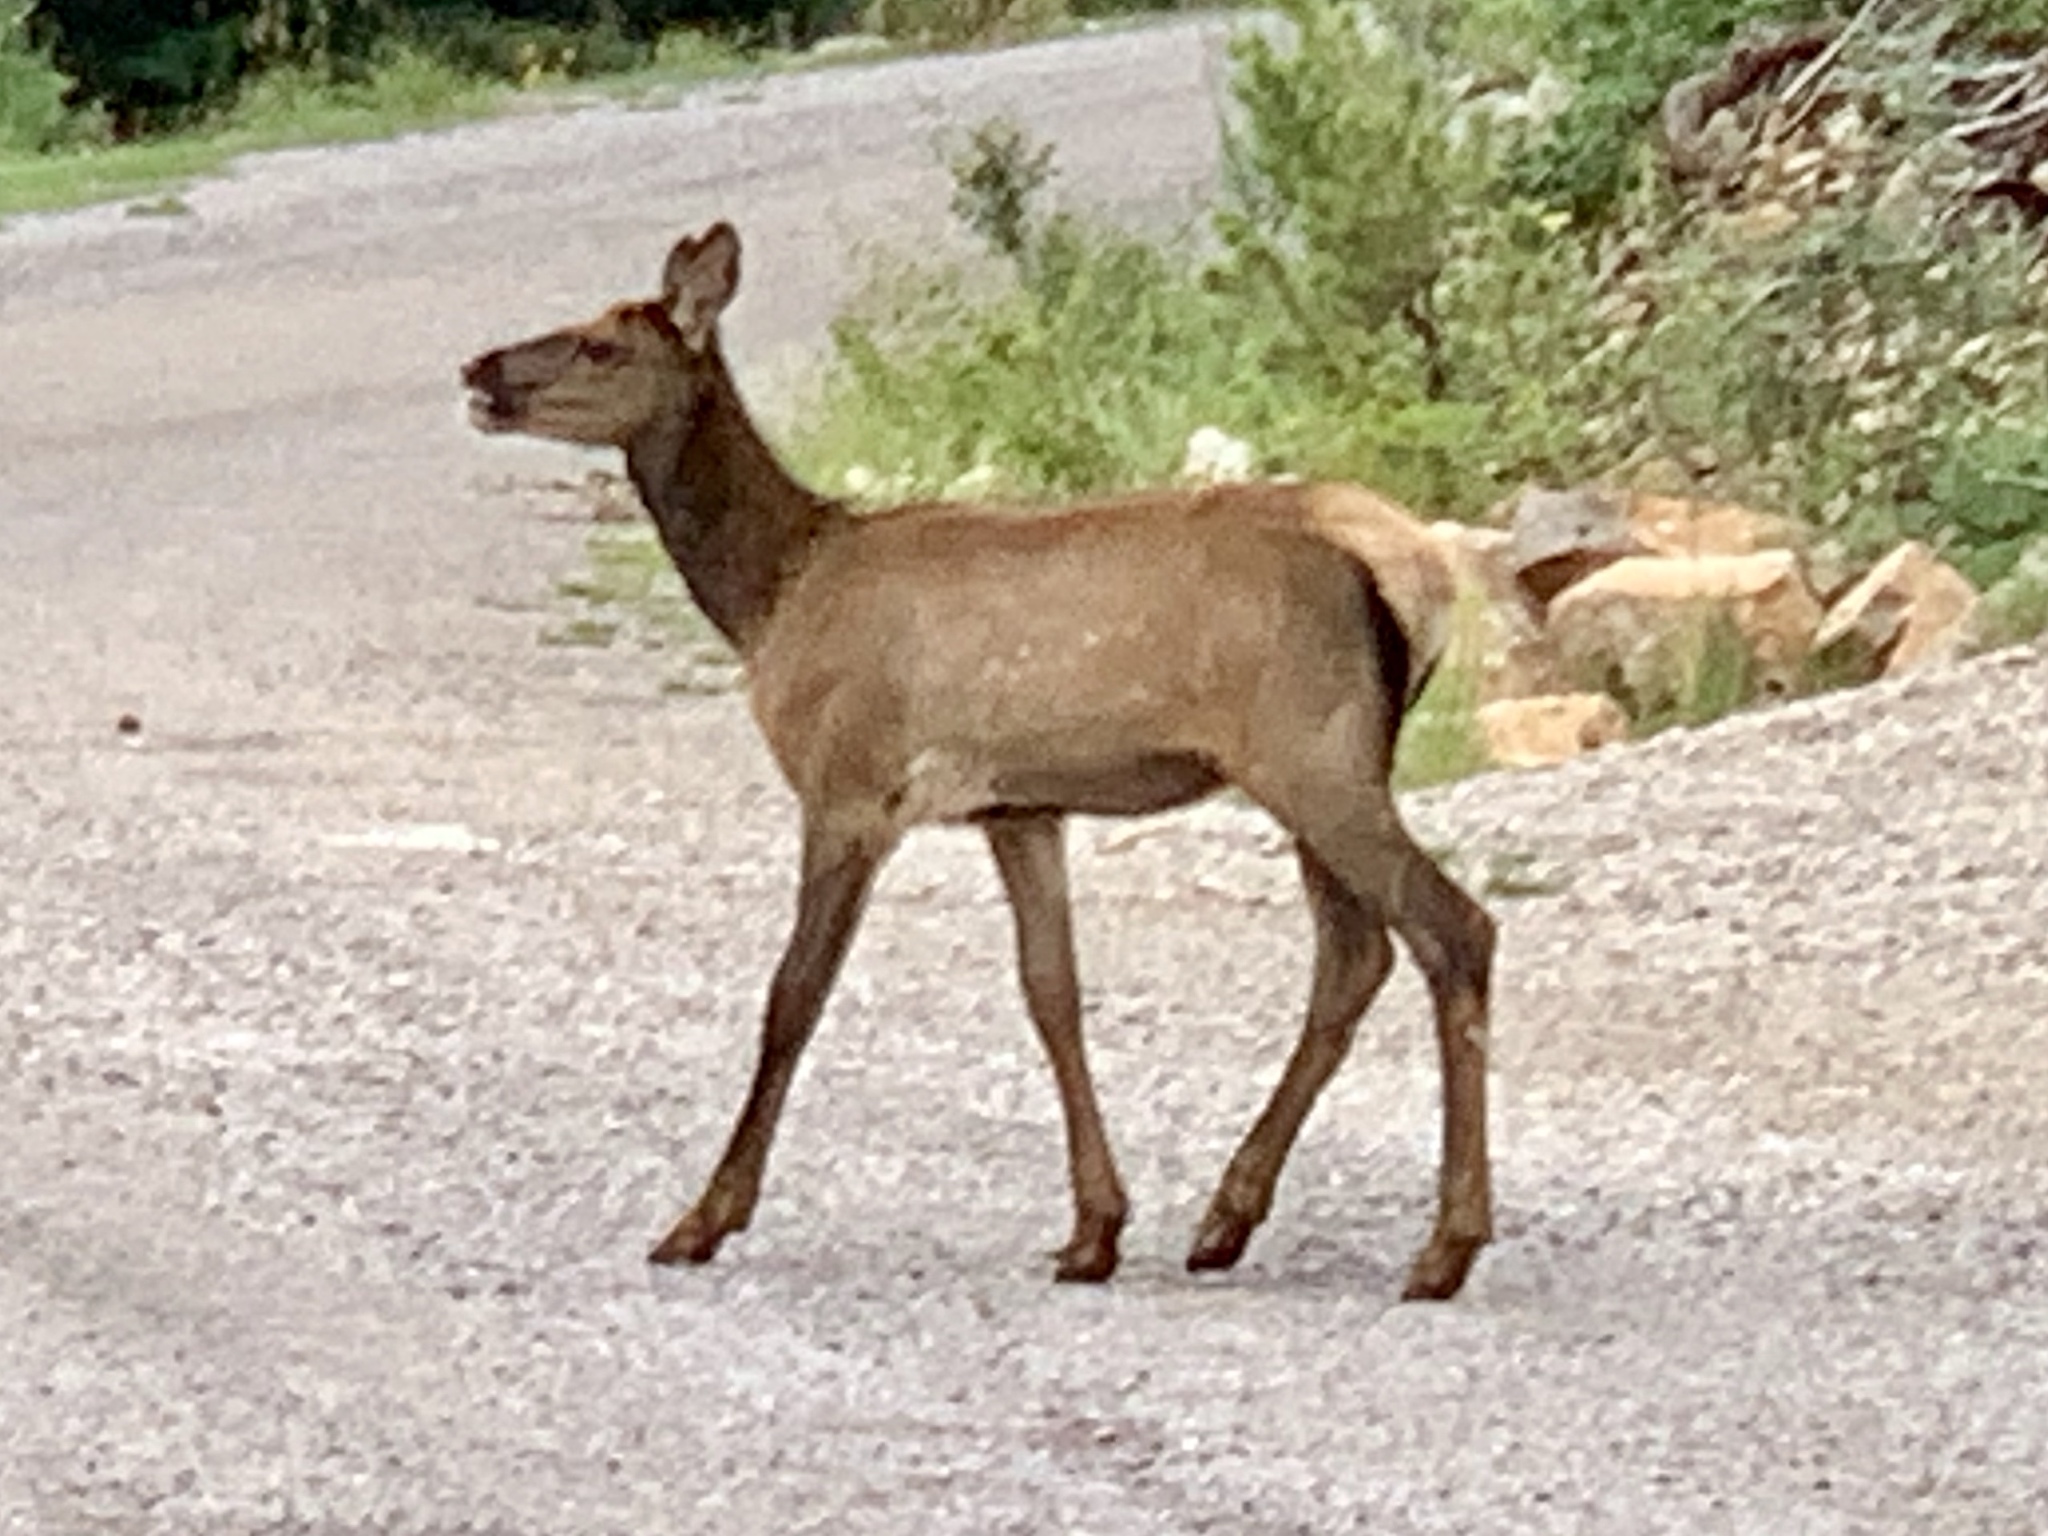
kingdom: Animalia
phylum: Chordata
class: Mammalia
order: Artiodactyla
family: Cervidae
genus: Cervus
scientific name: Cervus elaphus
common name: Red deer
